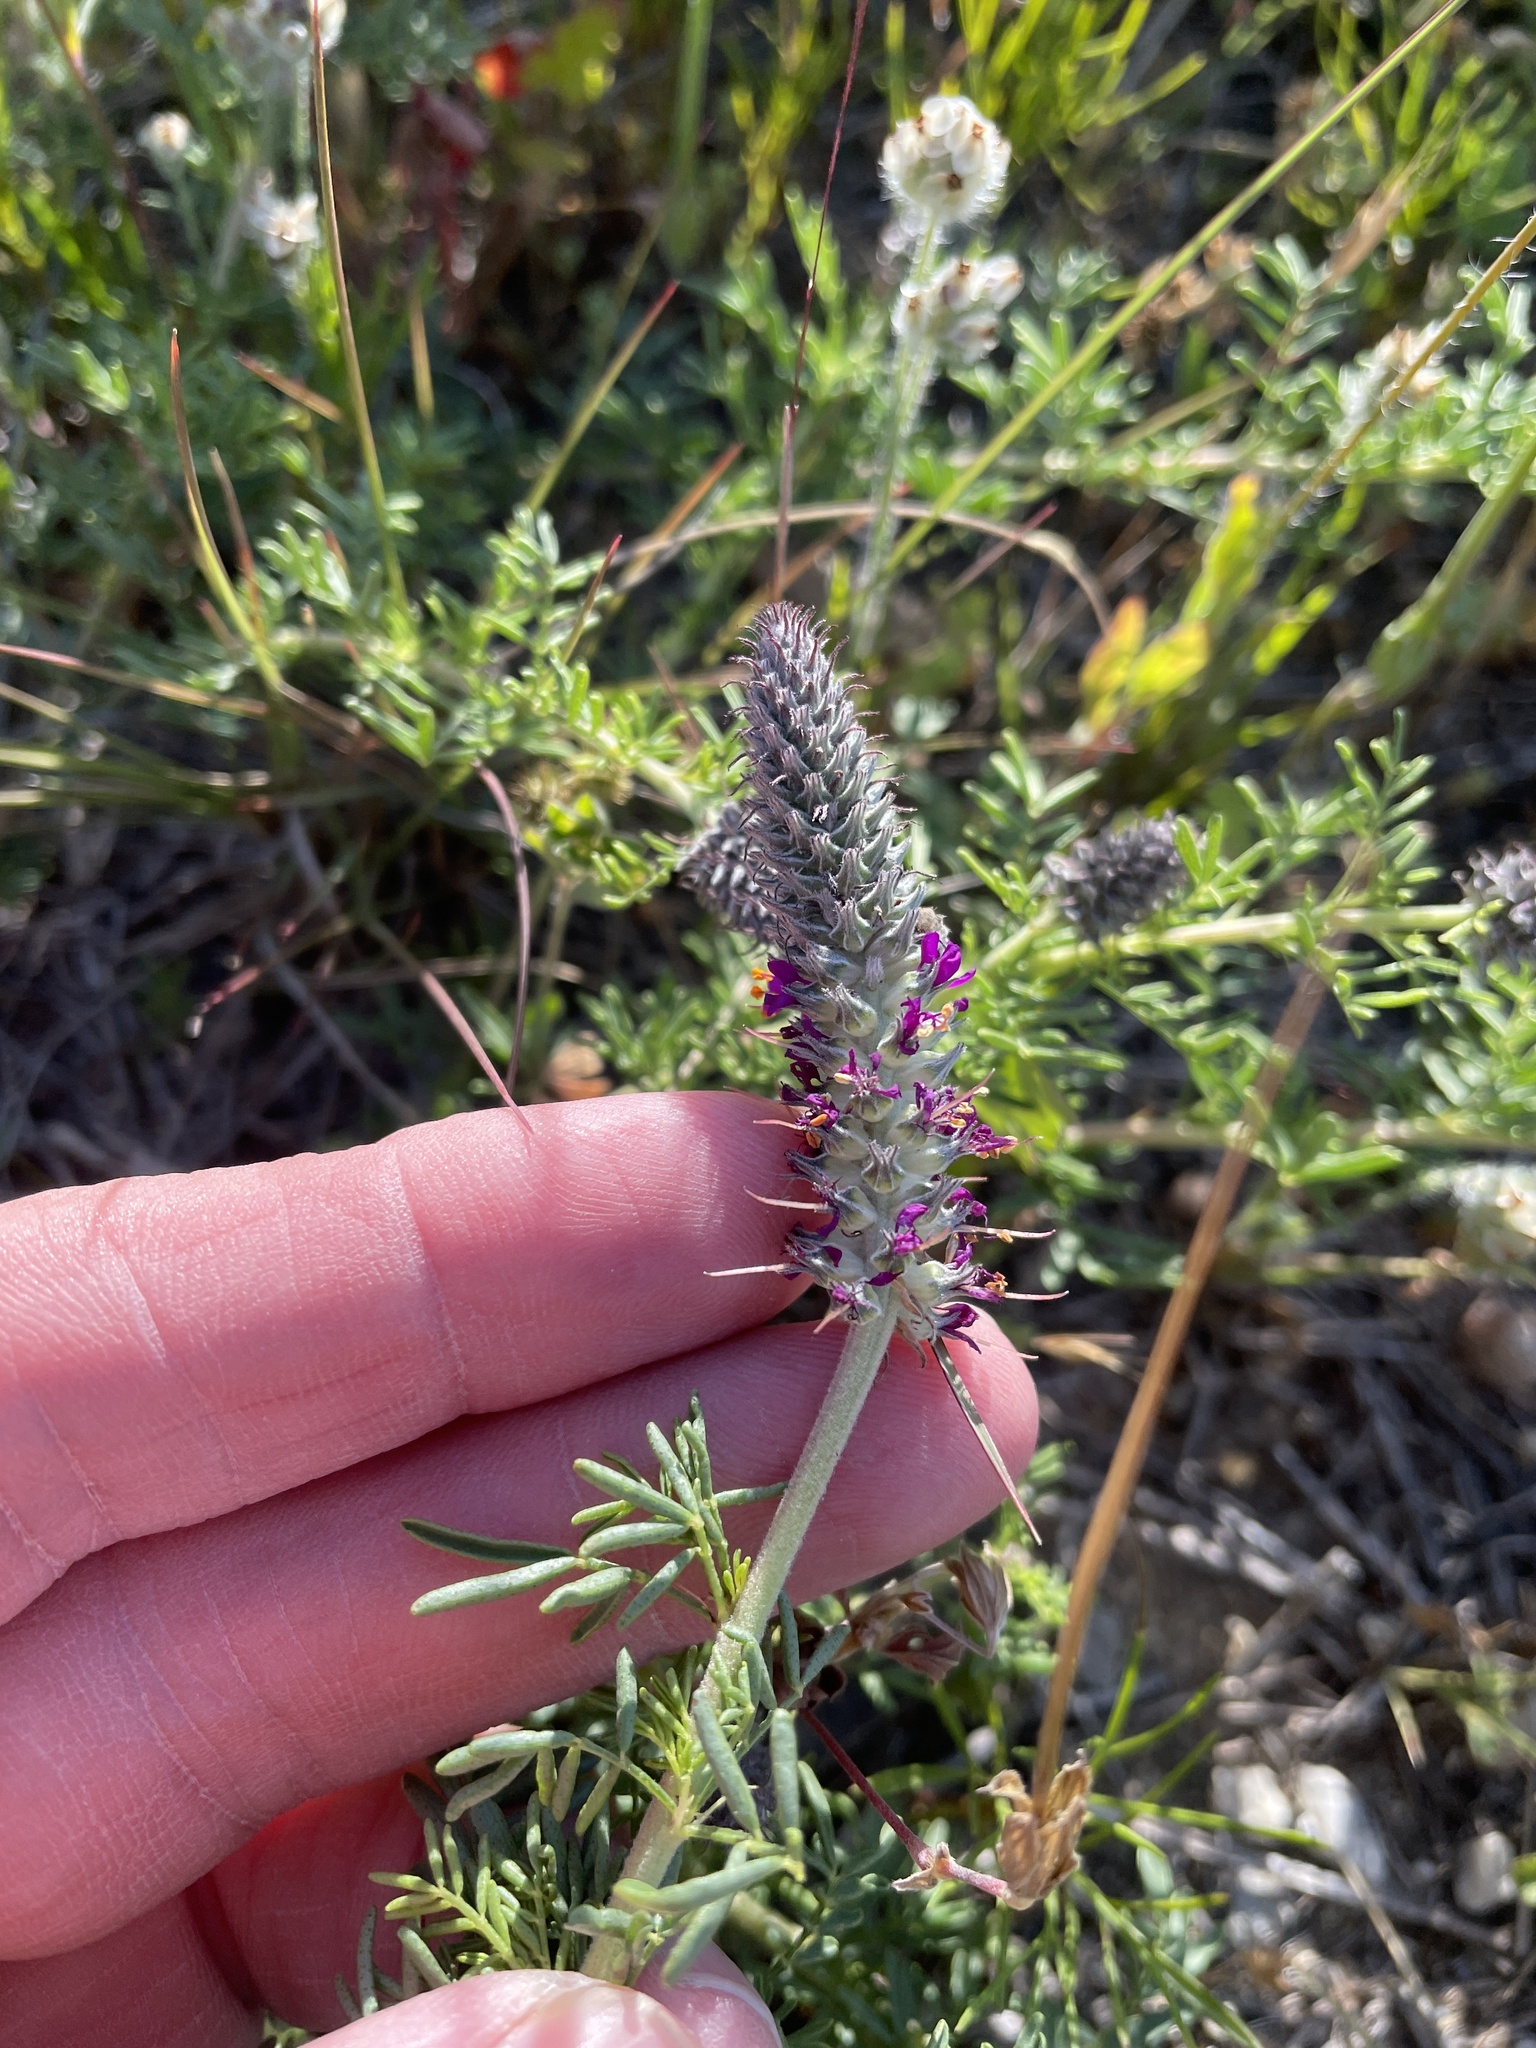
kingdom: Plantae
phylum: Tracheophyta
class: Magnoliopsida
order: Fabales
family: Fabaceae
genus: Dalea
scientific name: Dalea reverchonii
